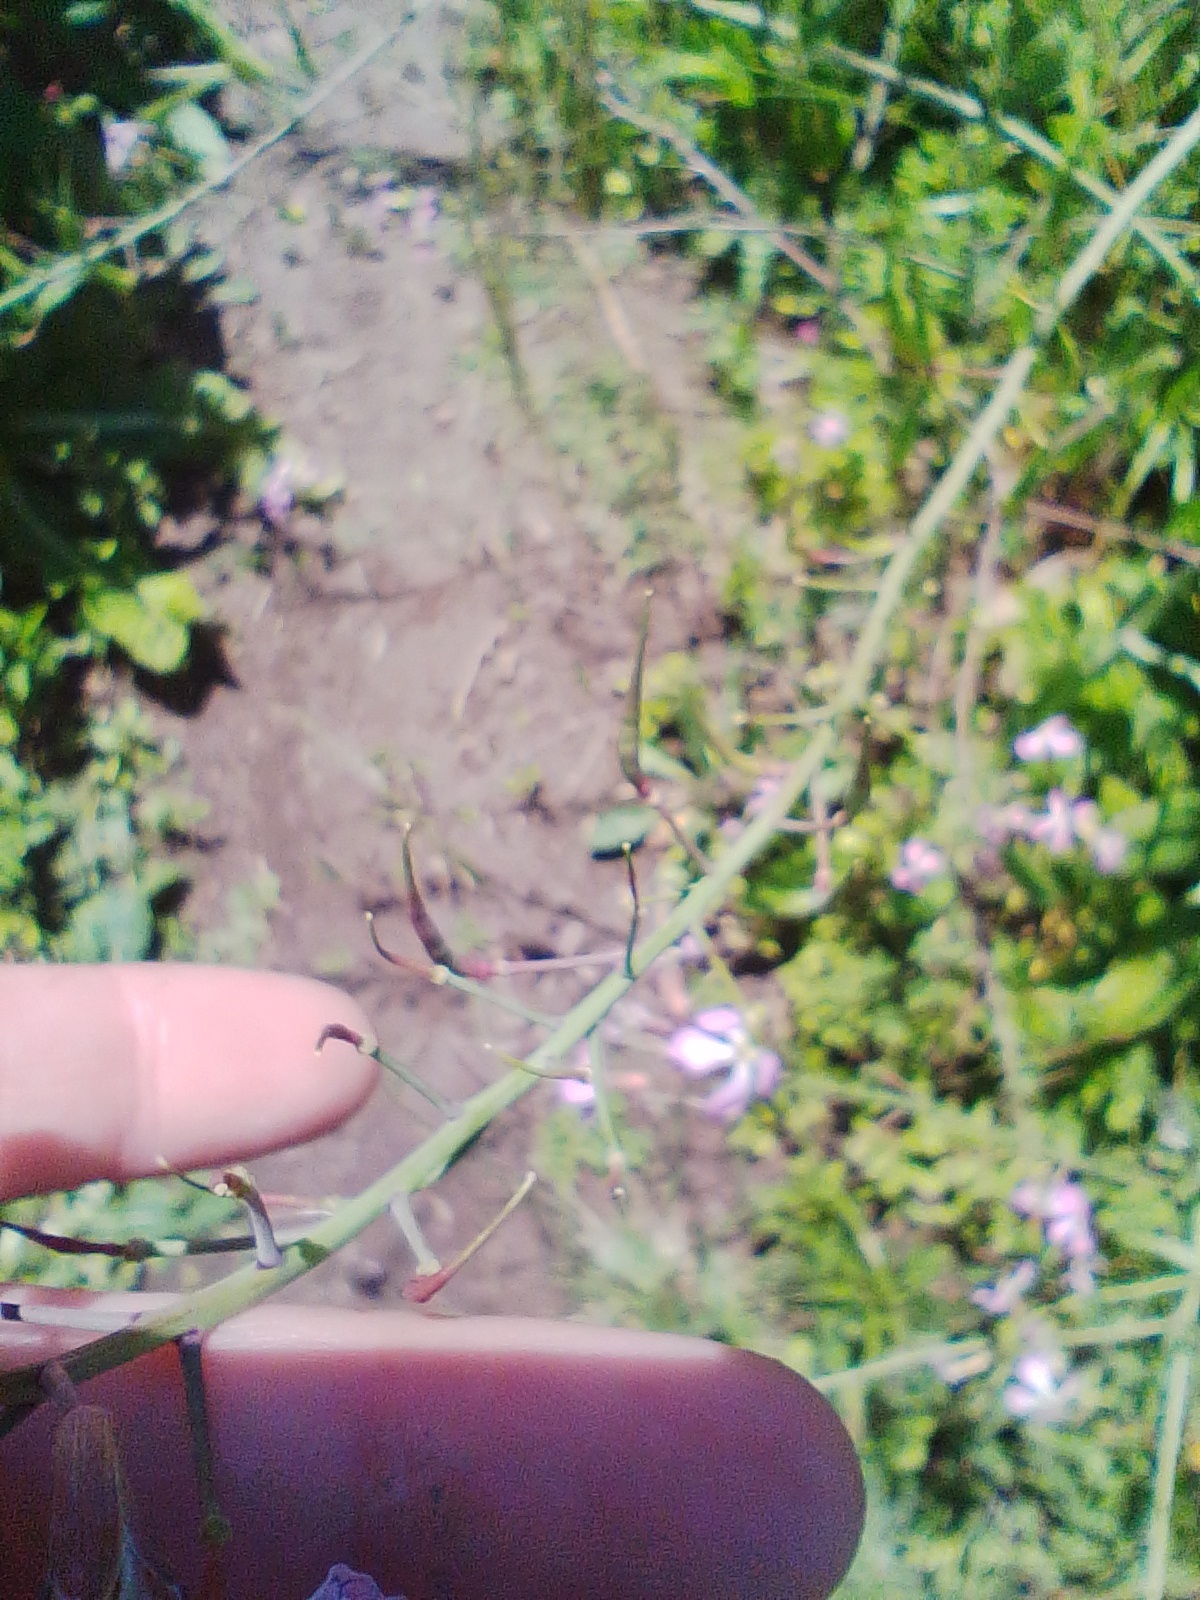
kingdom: Plantae
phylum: Tracheophyta
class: Magnoliopsida
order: Brassicales
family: Brassicaceae
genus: Raphanus
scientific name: Raphanus sativus
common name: Cultivated radish
